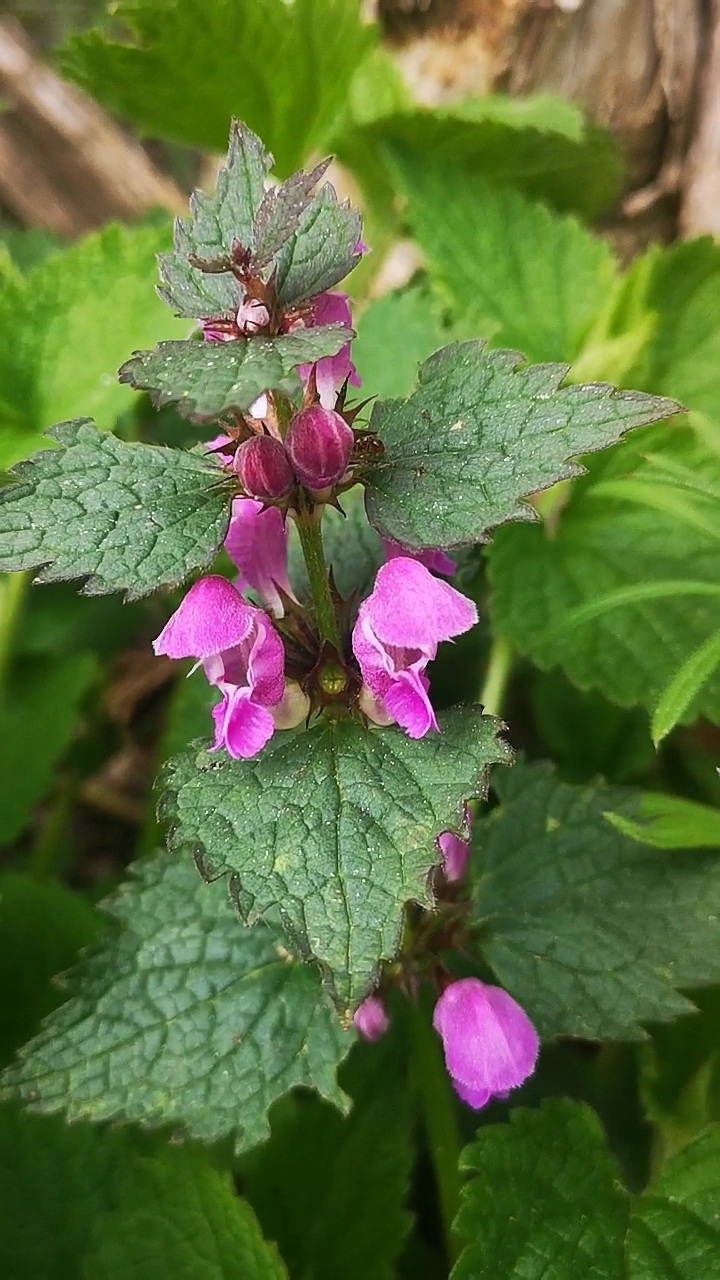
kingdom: Plantae
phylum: Tracheophyta
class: Magnoliopsida
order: Lamiales
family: Lamiaceae
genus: Lamium
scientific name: Lamium maculatum
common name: Spotted dead-nettle
